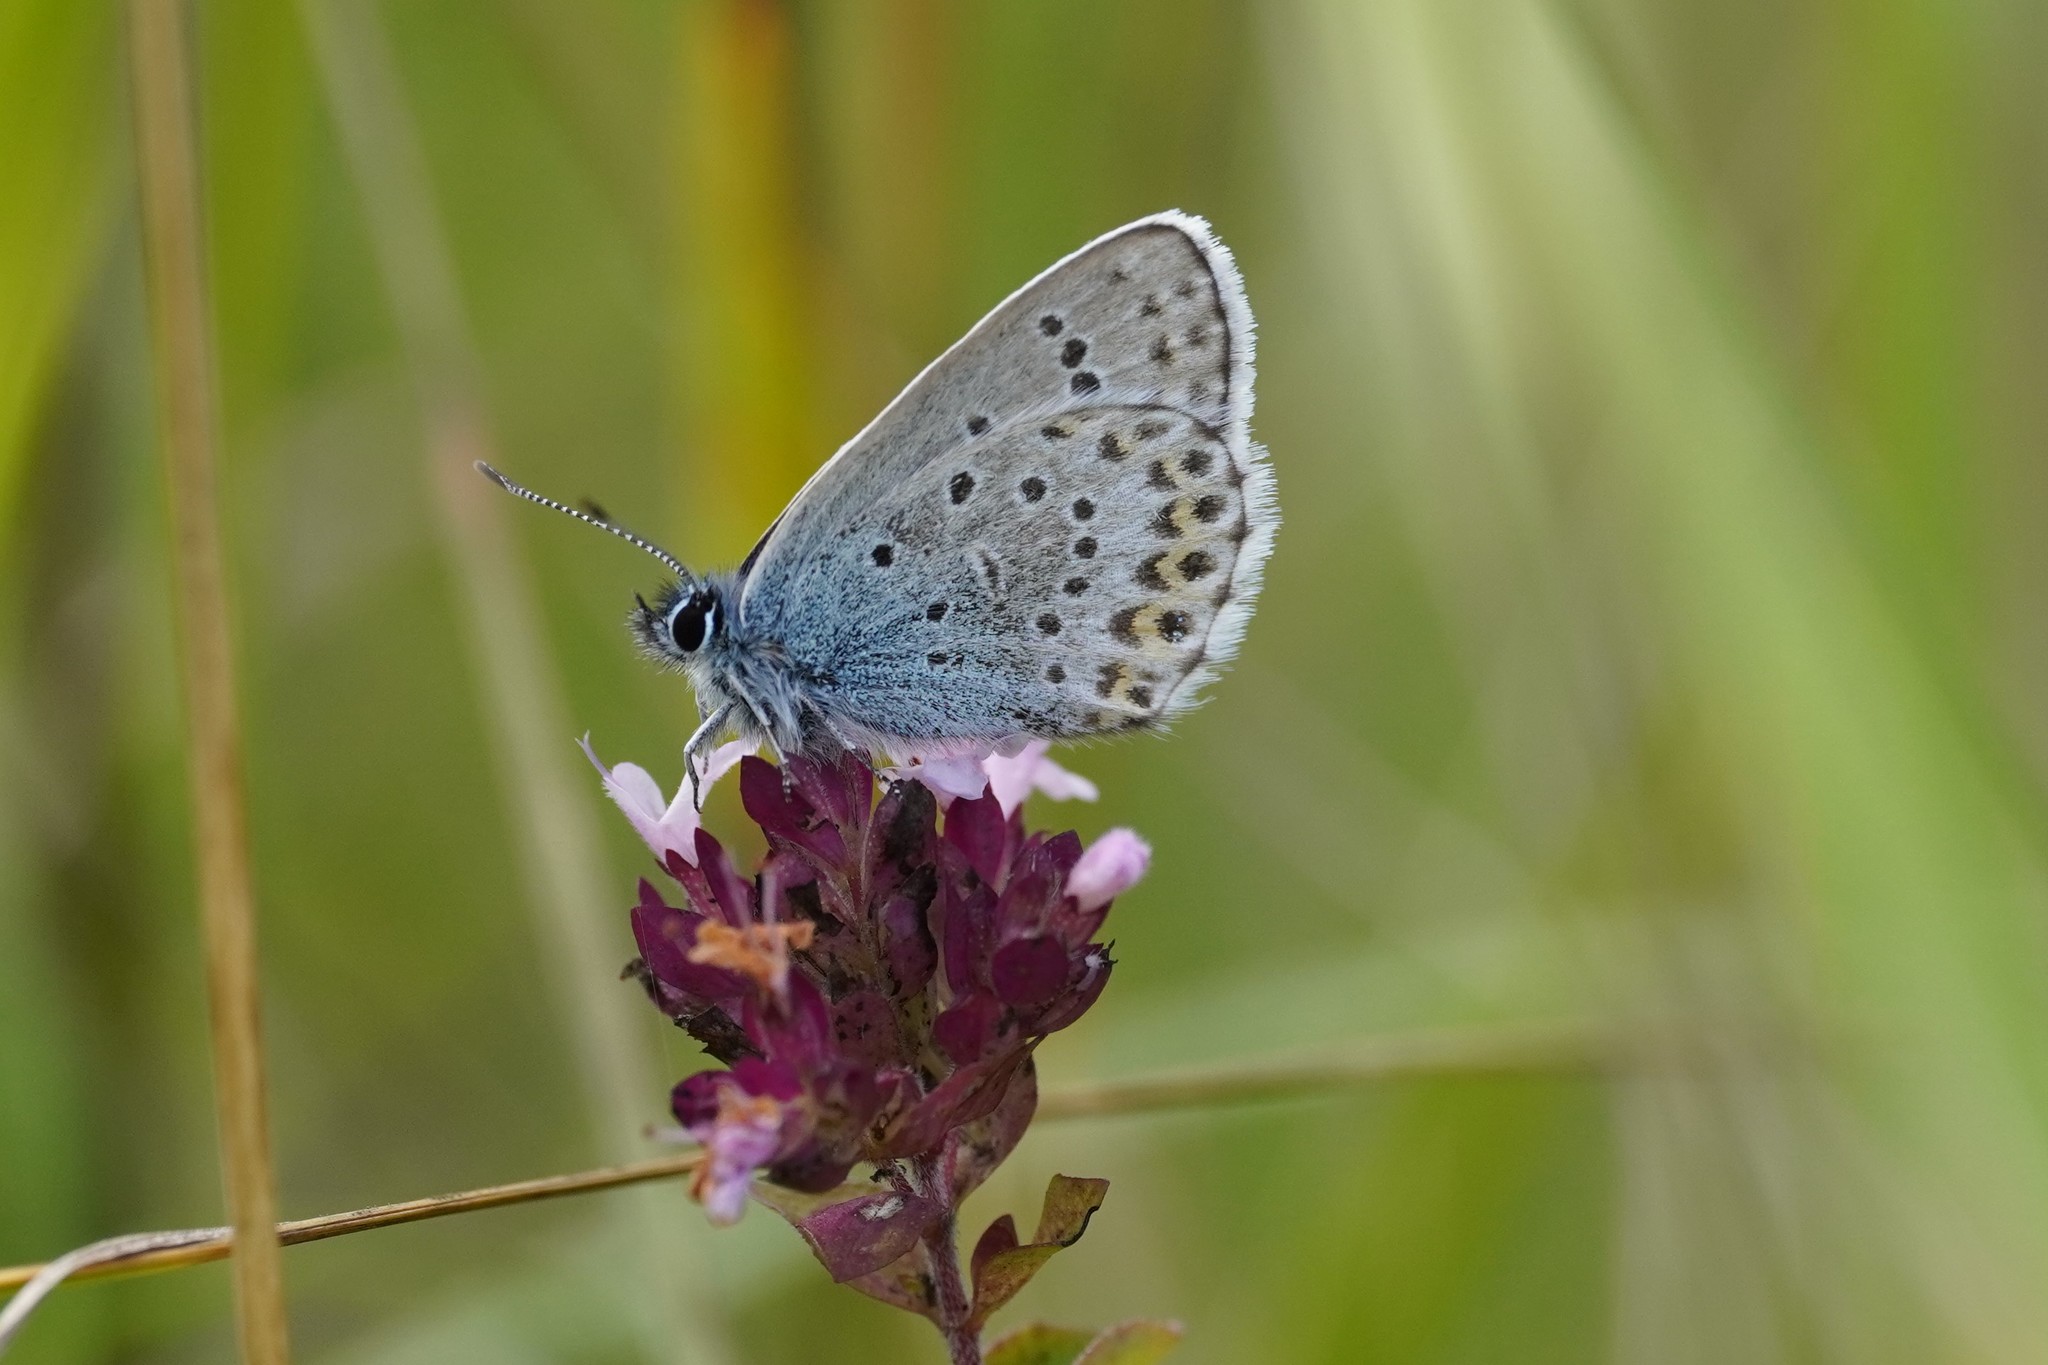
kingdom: Animalia
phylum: Arthropoda
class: Insecta
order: Lepidoptera
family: Lycaenidae
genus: Lycaeides
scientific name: Lycaeides idas
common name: Northern blue
